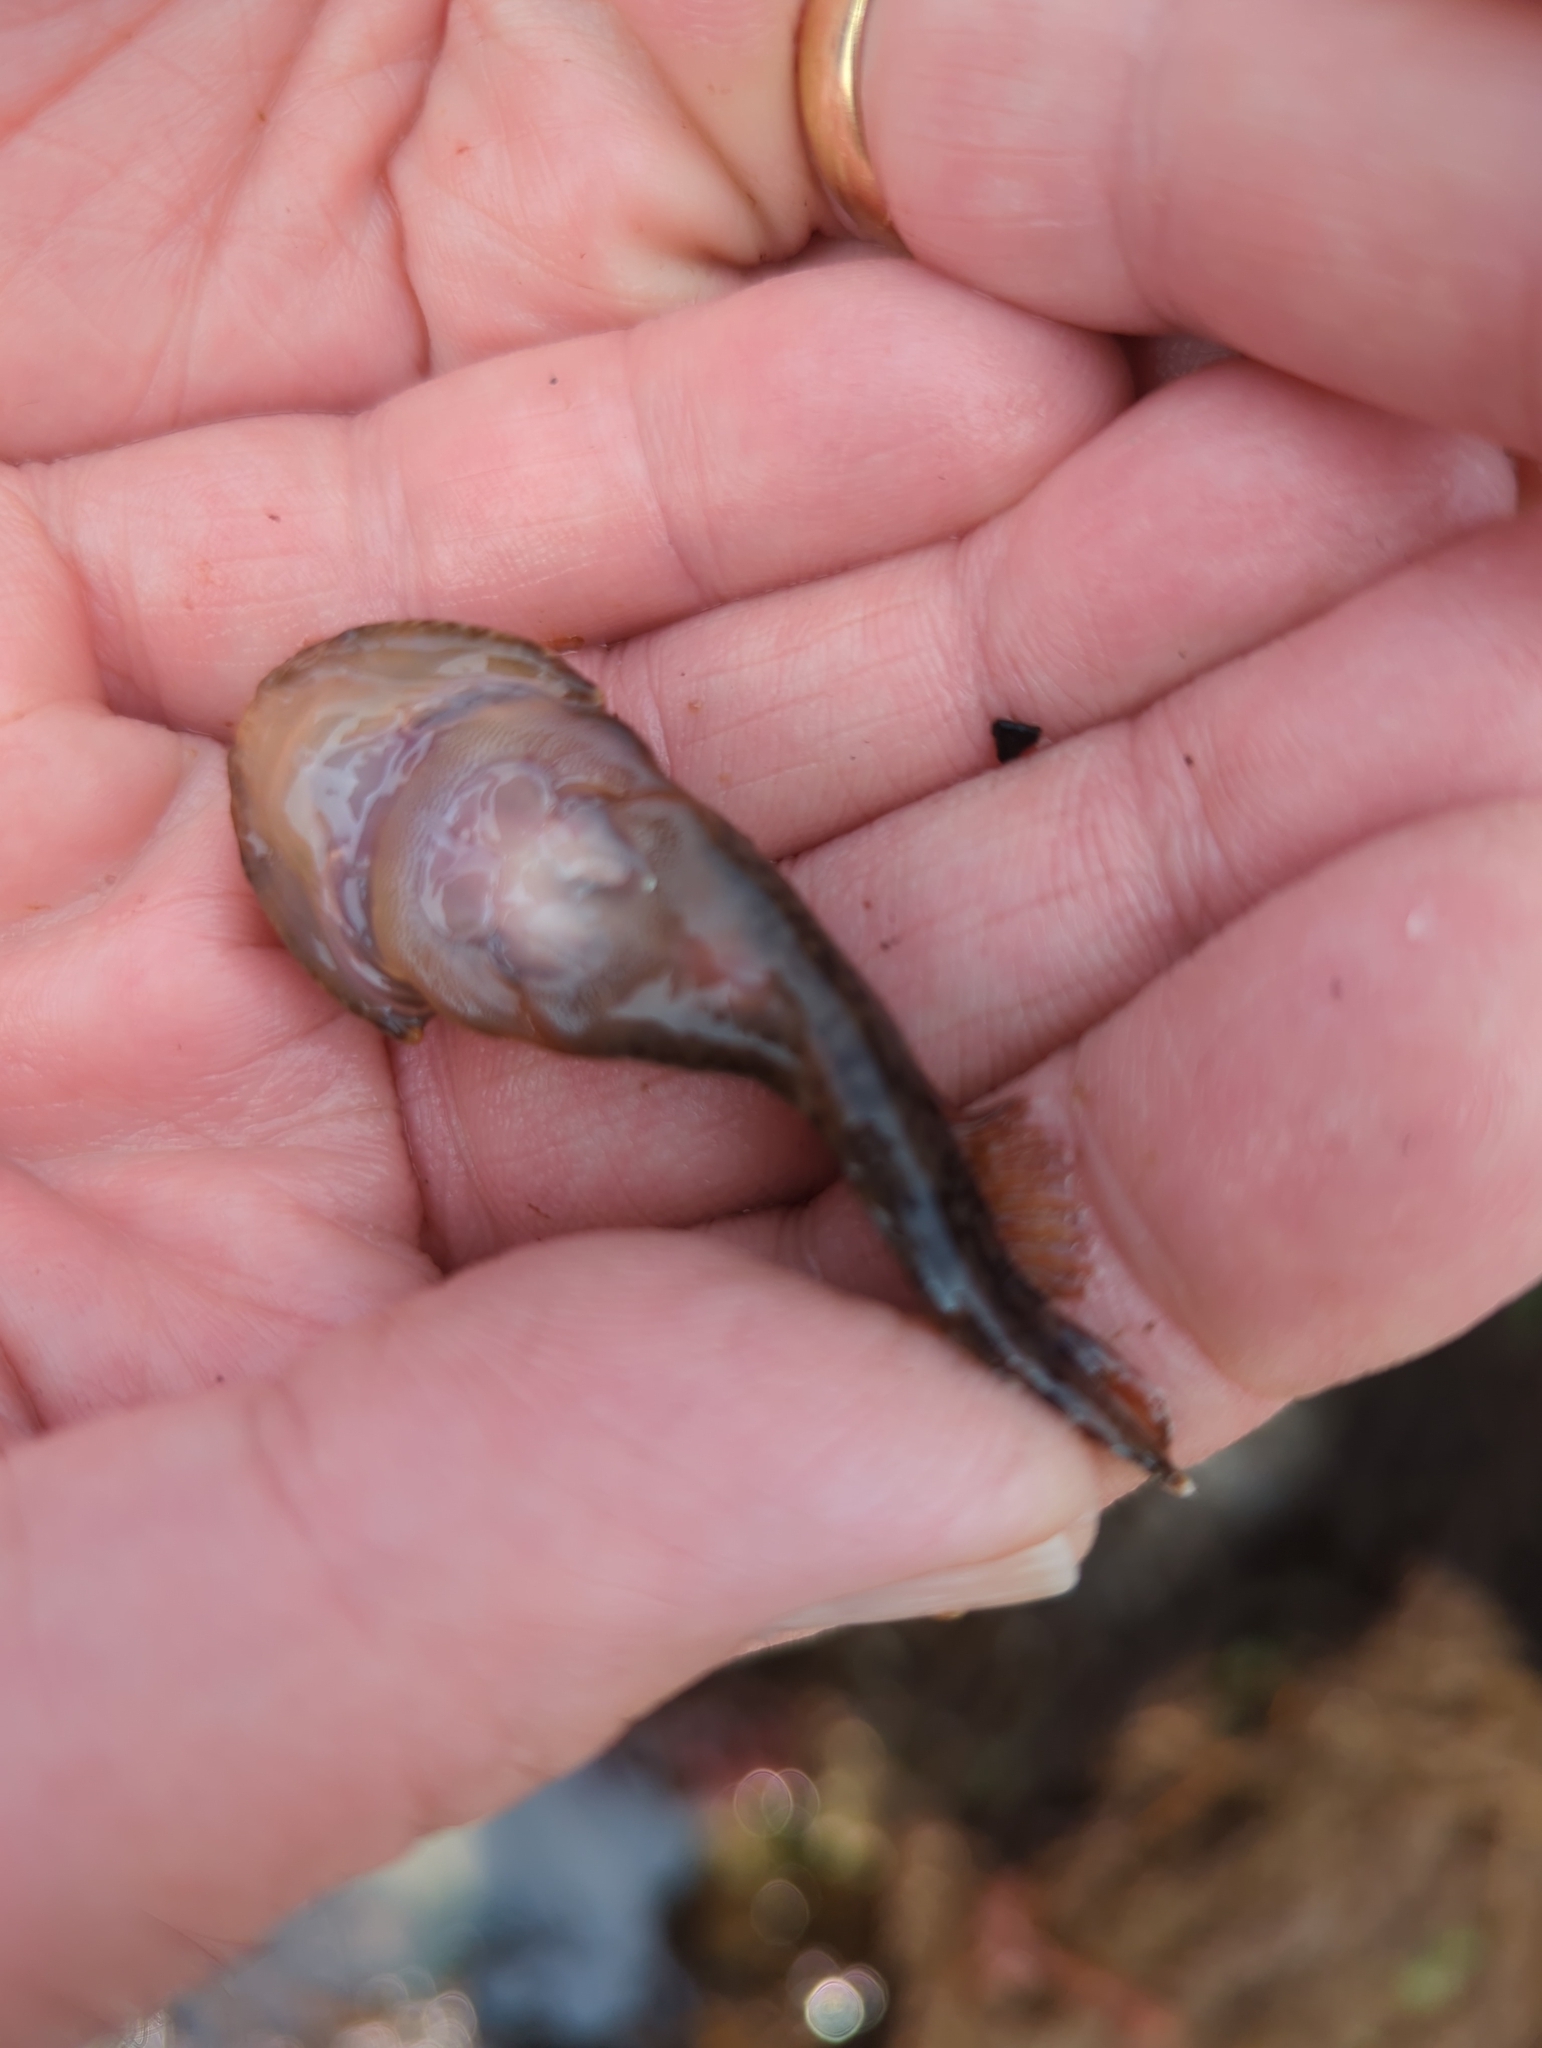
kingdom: Animalia
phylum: Chordata
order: Gobiesociformes
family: Gobiesocidae
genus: Gobiesox
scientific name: Gobiesox maeandricus
